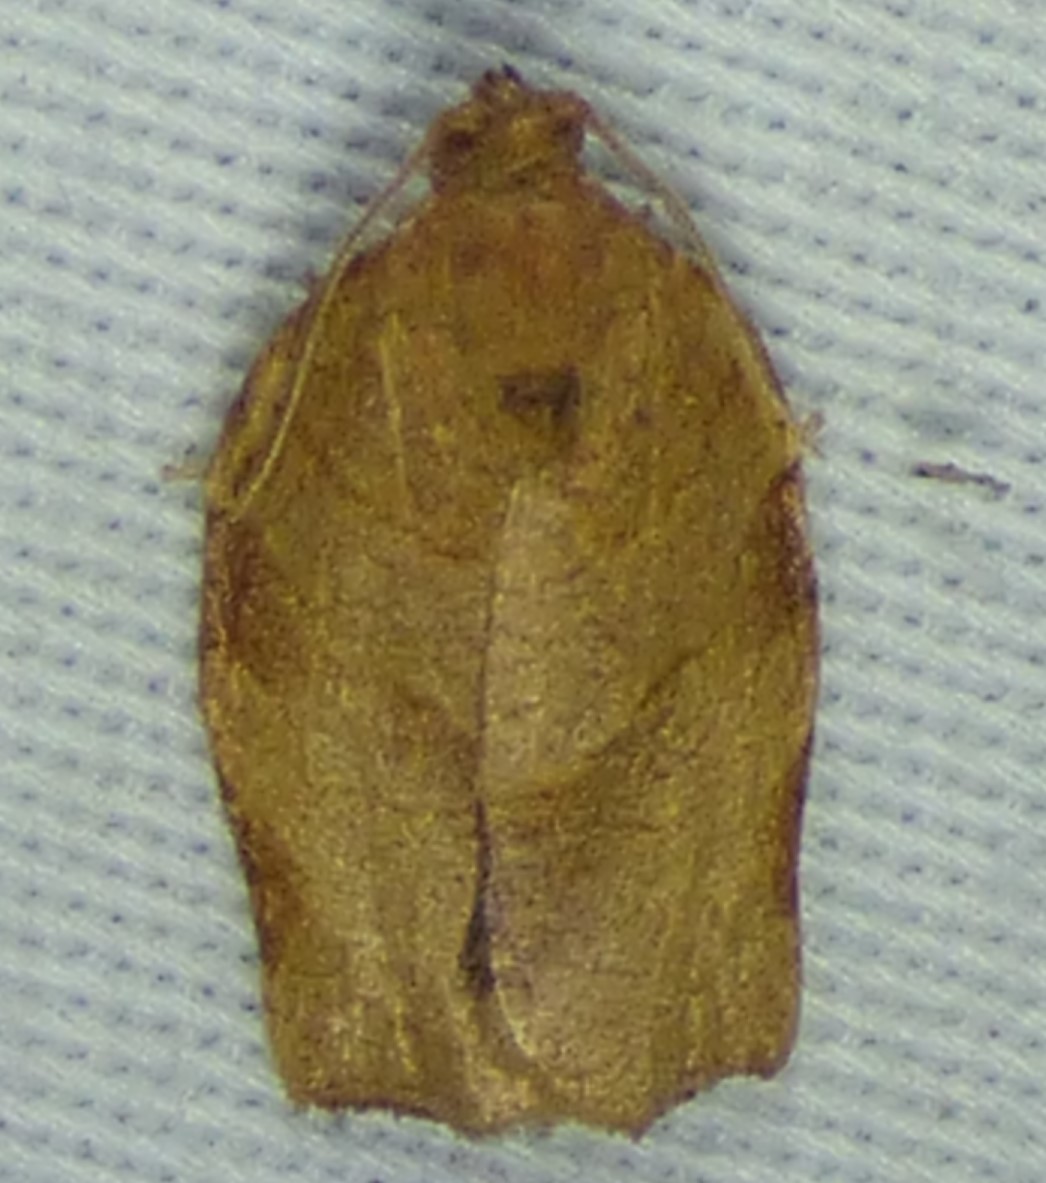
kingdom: Animalia
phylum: Arthropoda
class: Insecta
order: Lepidoptera
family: Tortricidae
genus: Choristoneura
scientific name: Choristoneura rosaceana
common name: Oblique-banded leafroller moth
